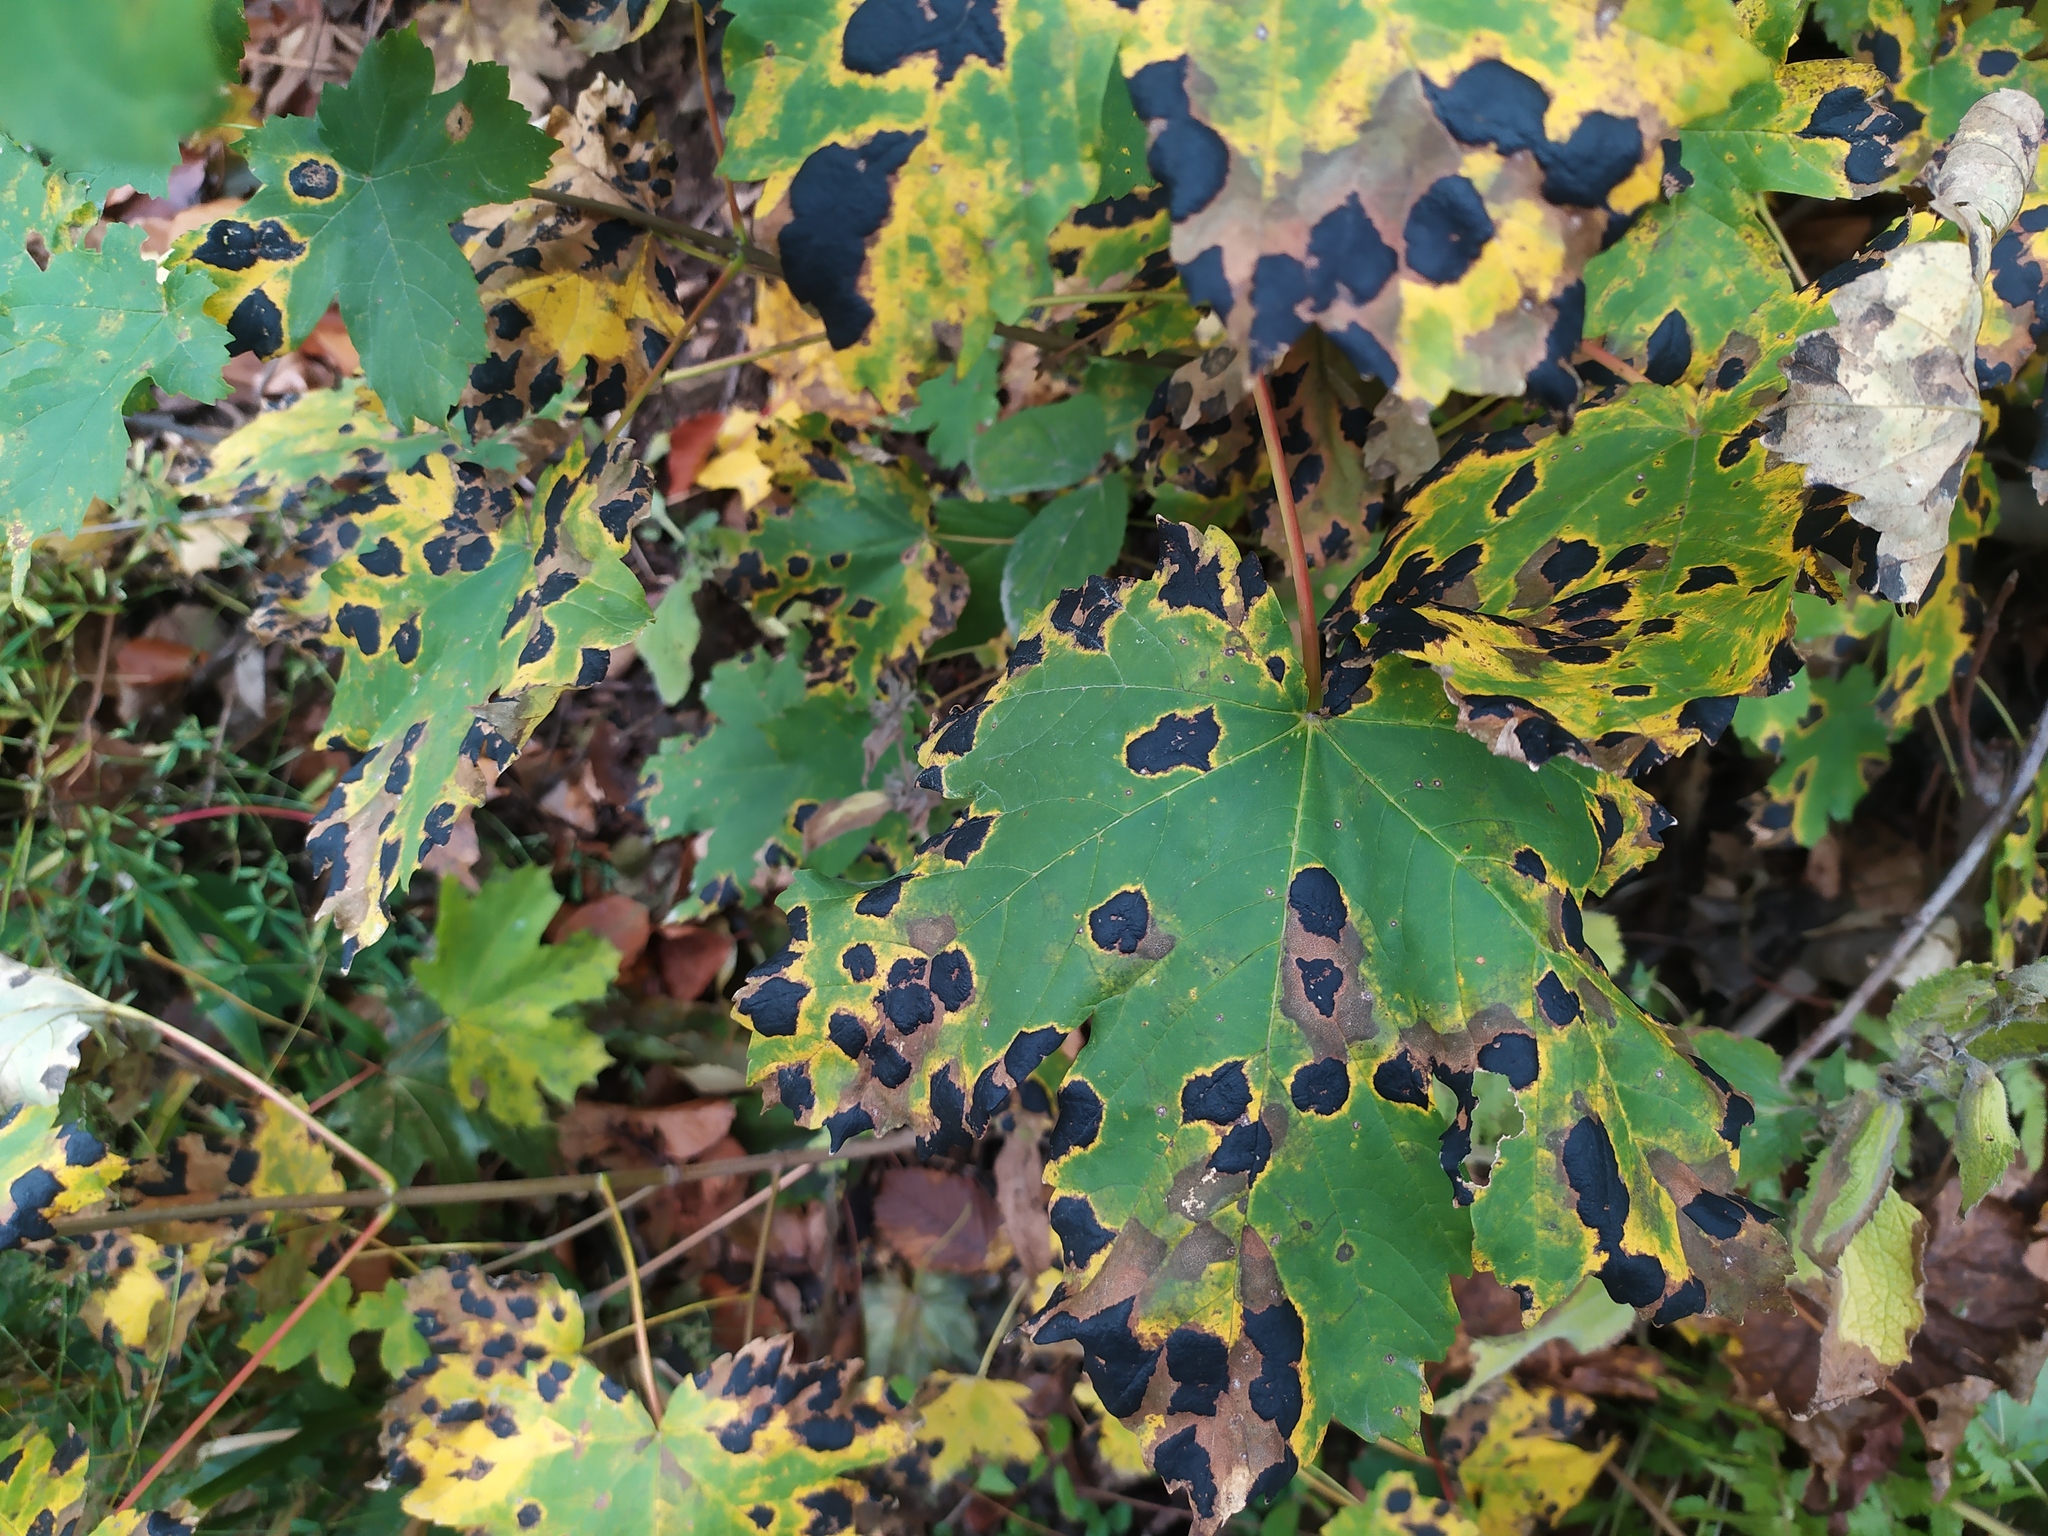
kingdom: Fungi
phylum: Ascomycota
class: Leotiomycetes
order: Rhytismatales
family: Rhytismataceae
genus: Rhytisma
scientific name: Rhytisma acerinum
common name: European tar spot
